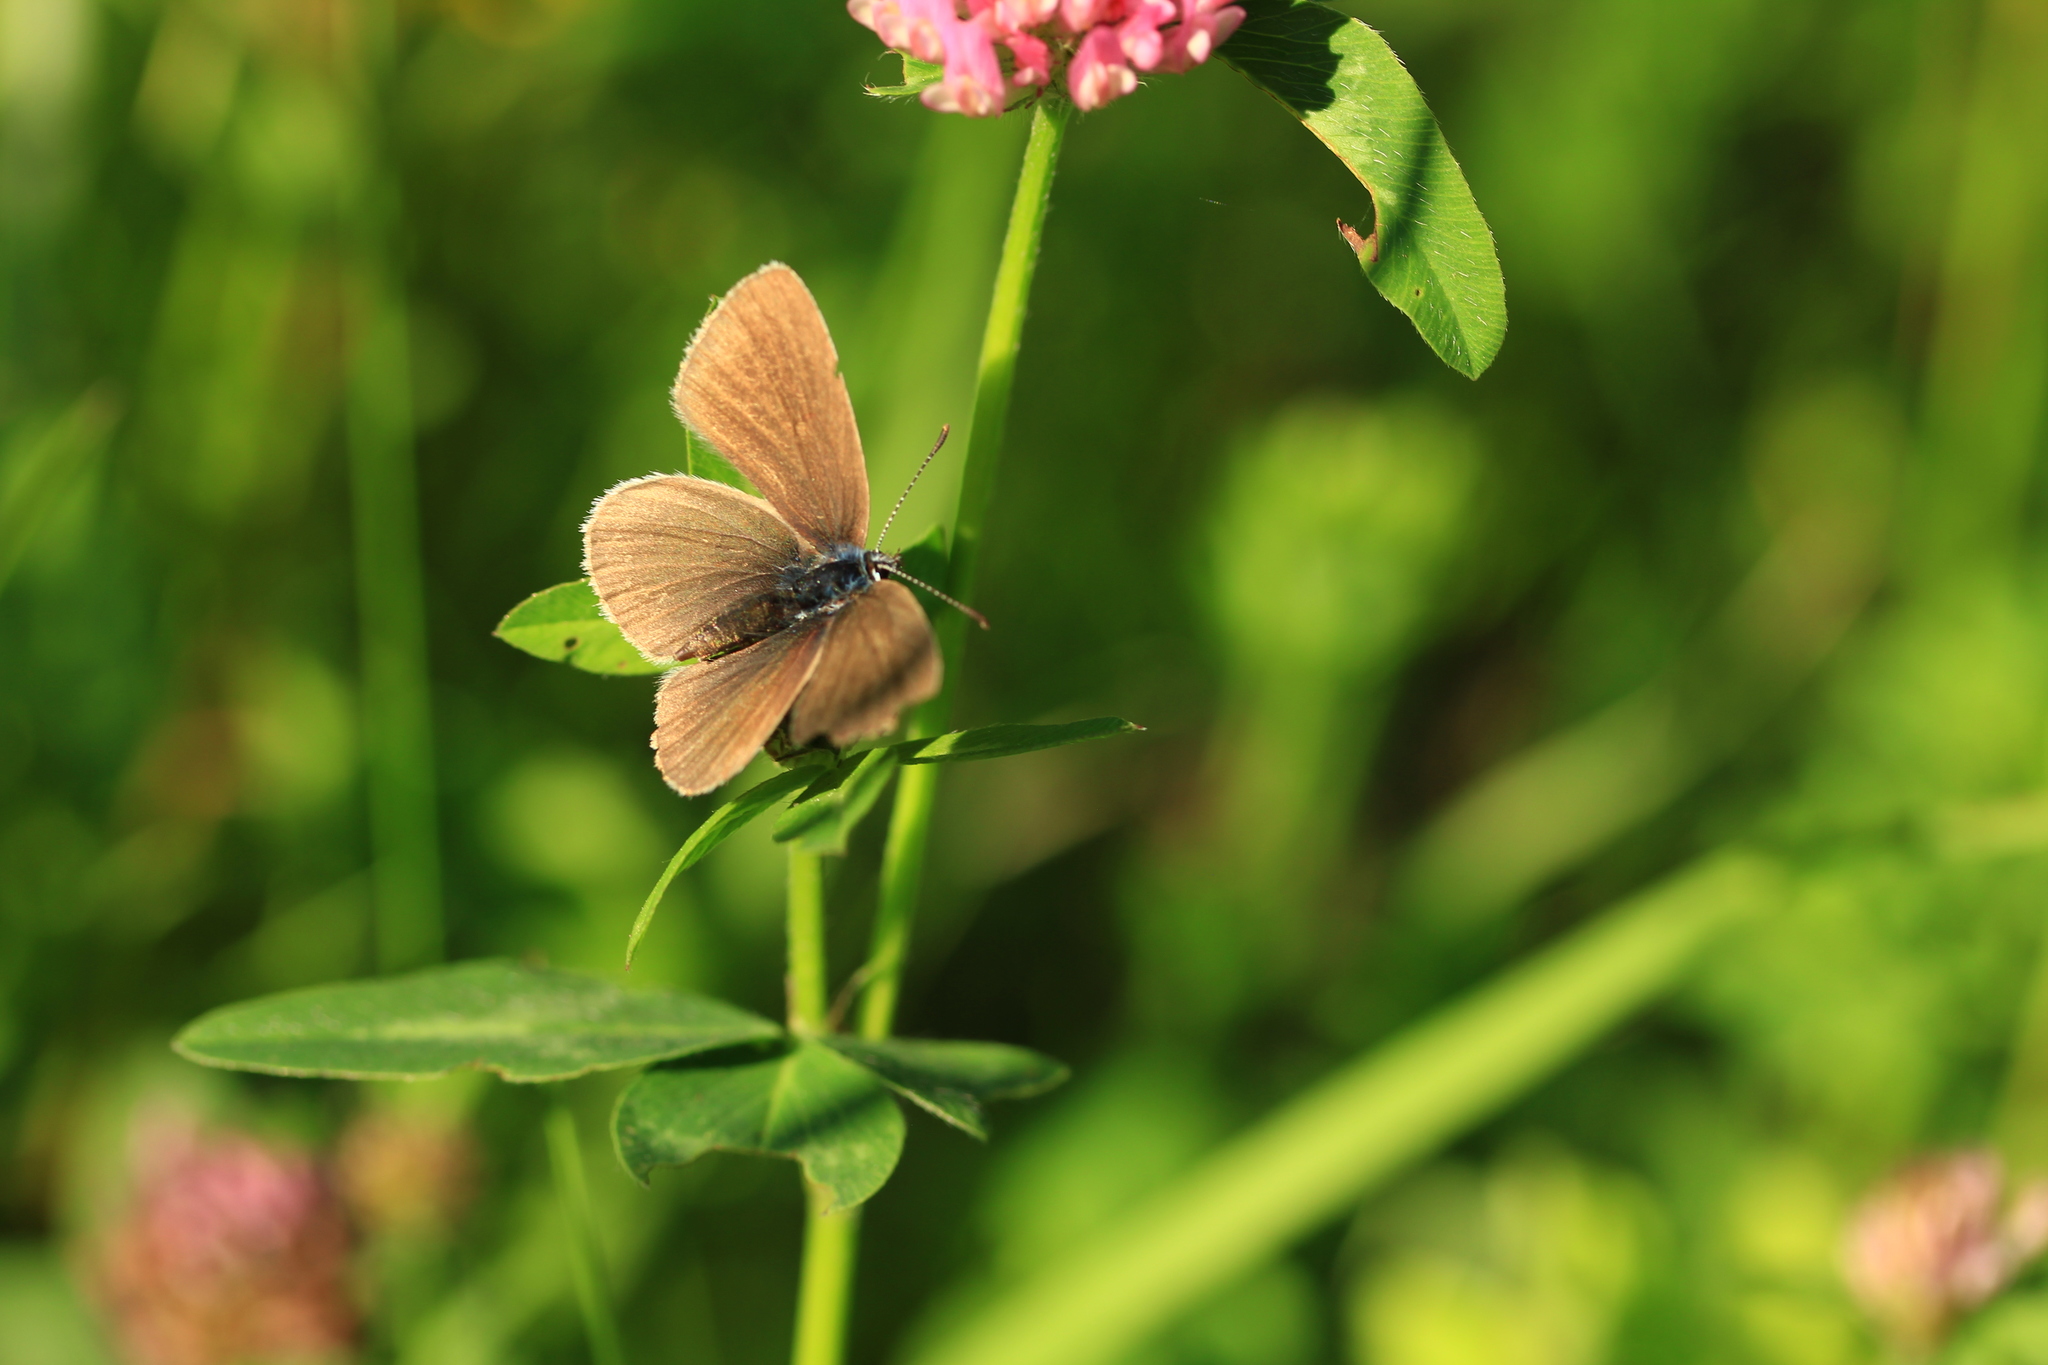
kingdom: Animalia
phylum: Arthropoda
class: Insecta
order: Lepidoptera
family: Lycaenidae
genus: Cyaniris
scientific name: Cyaniris semiargus
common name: Mazarine blue
